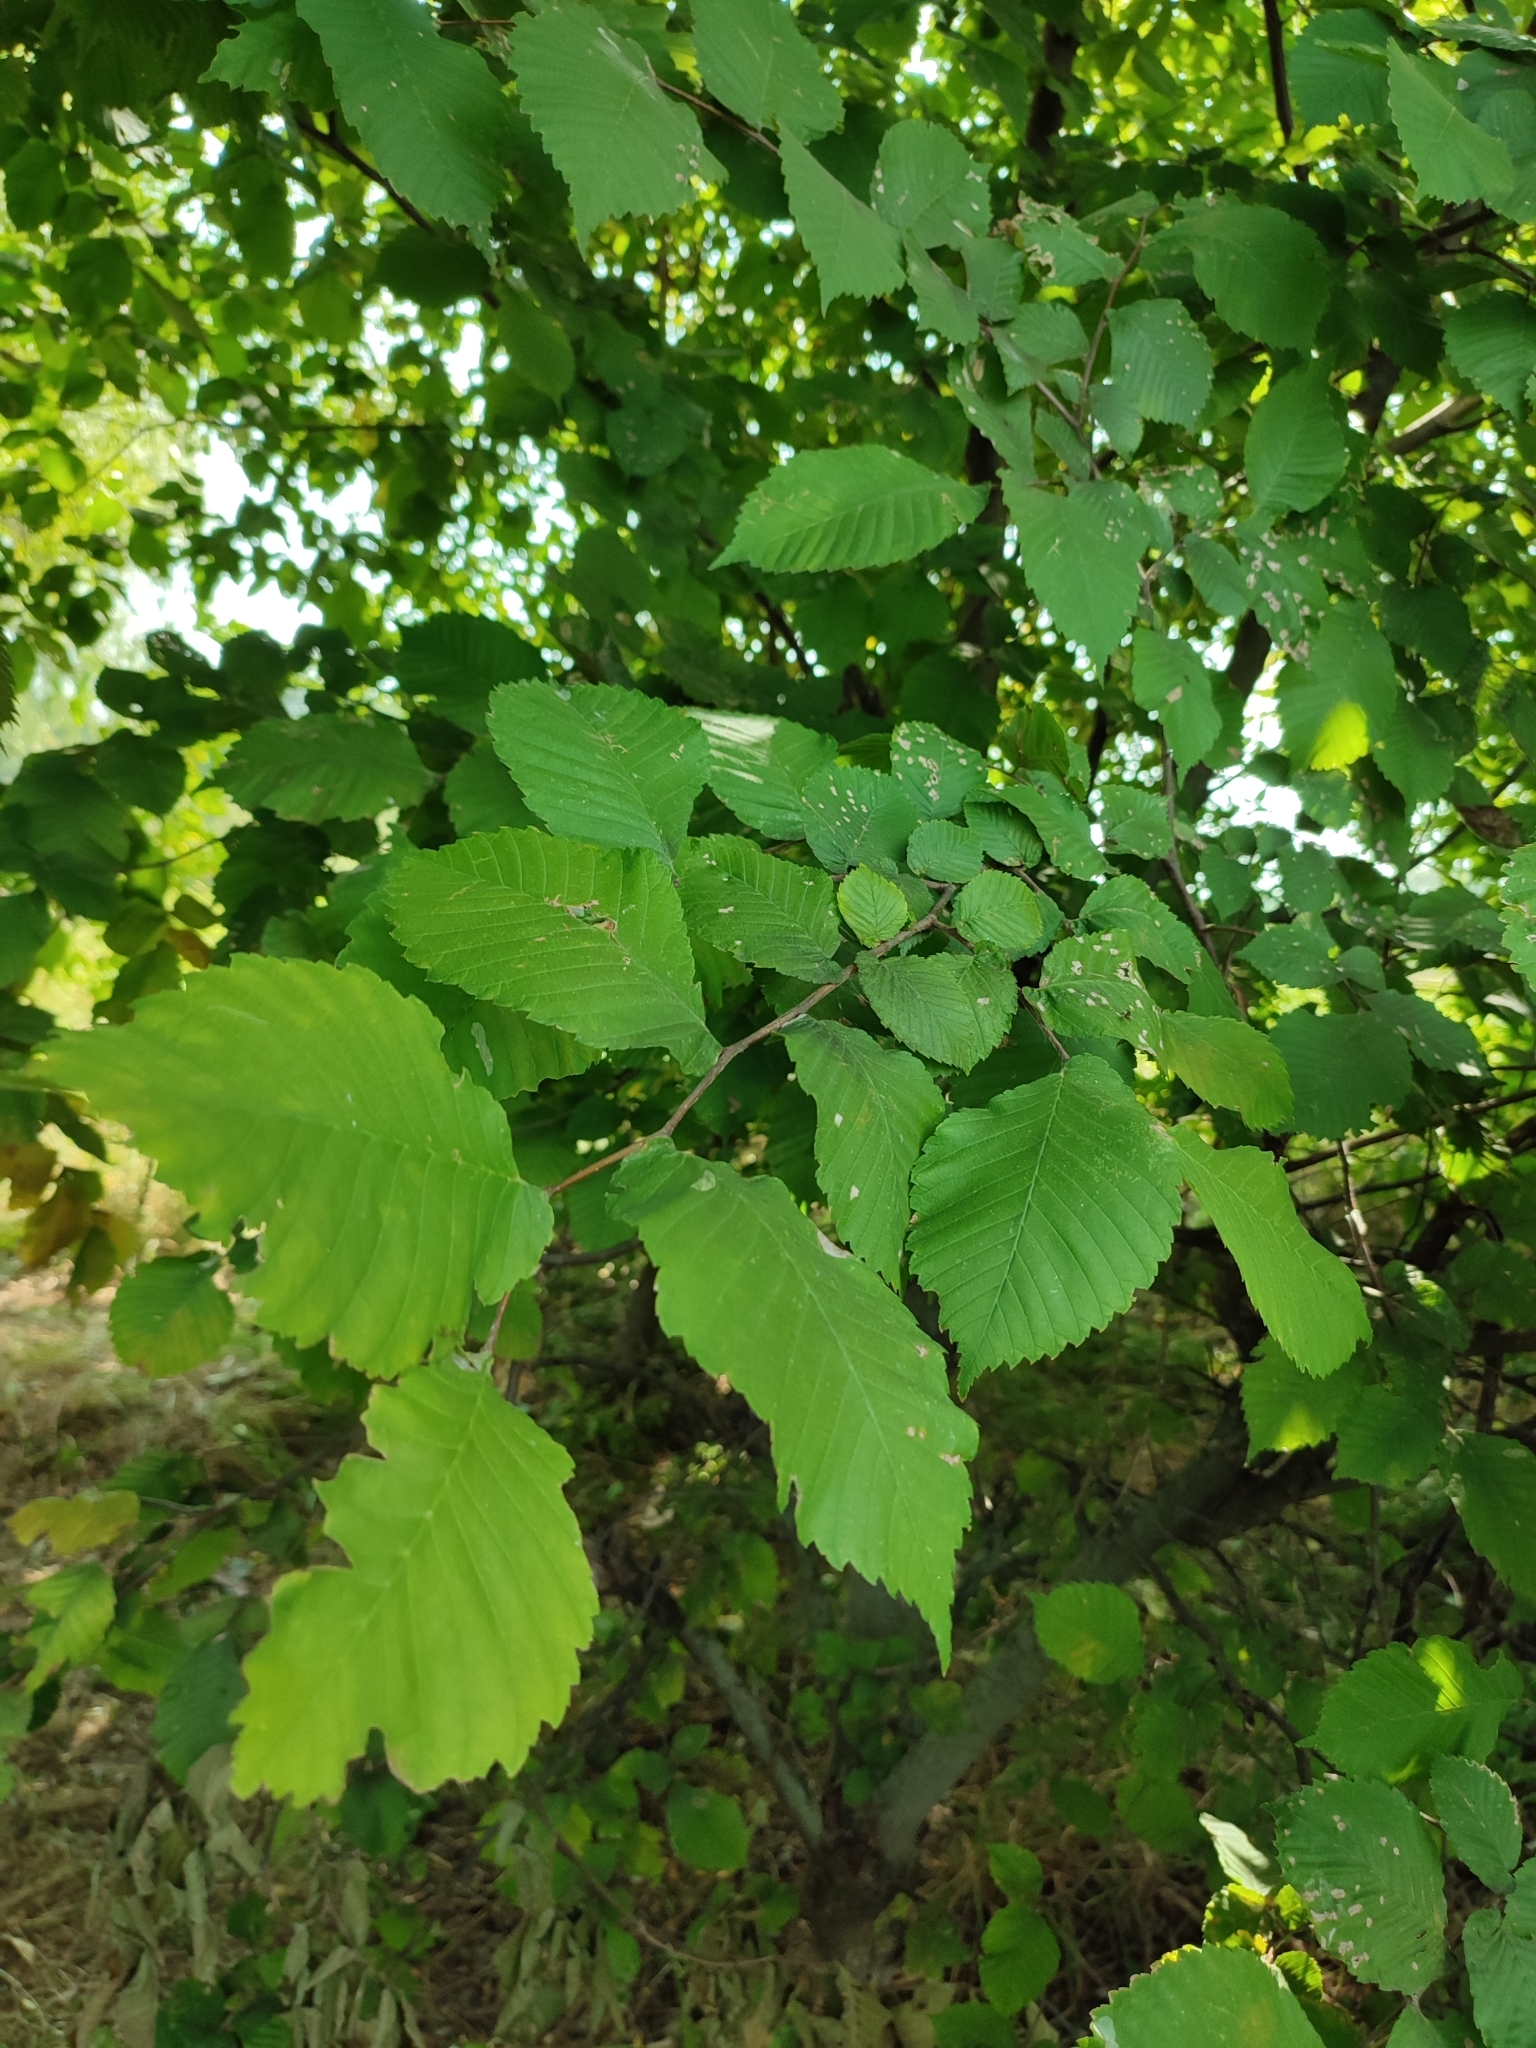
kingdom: Plantae
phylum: Tracheophyta
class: Magnoliopsida
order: Rosales
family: Ulmaceae
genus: Ulmus
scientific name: Ulmus glabra
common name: Wych elm
